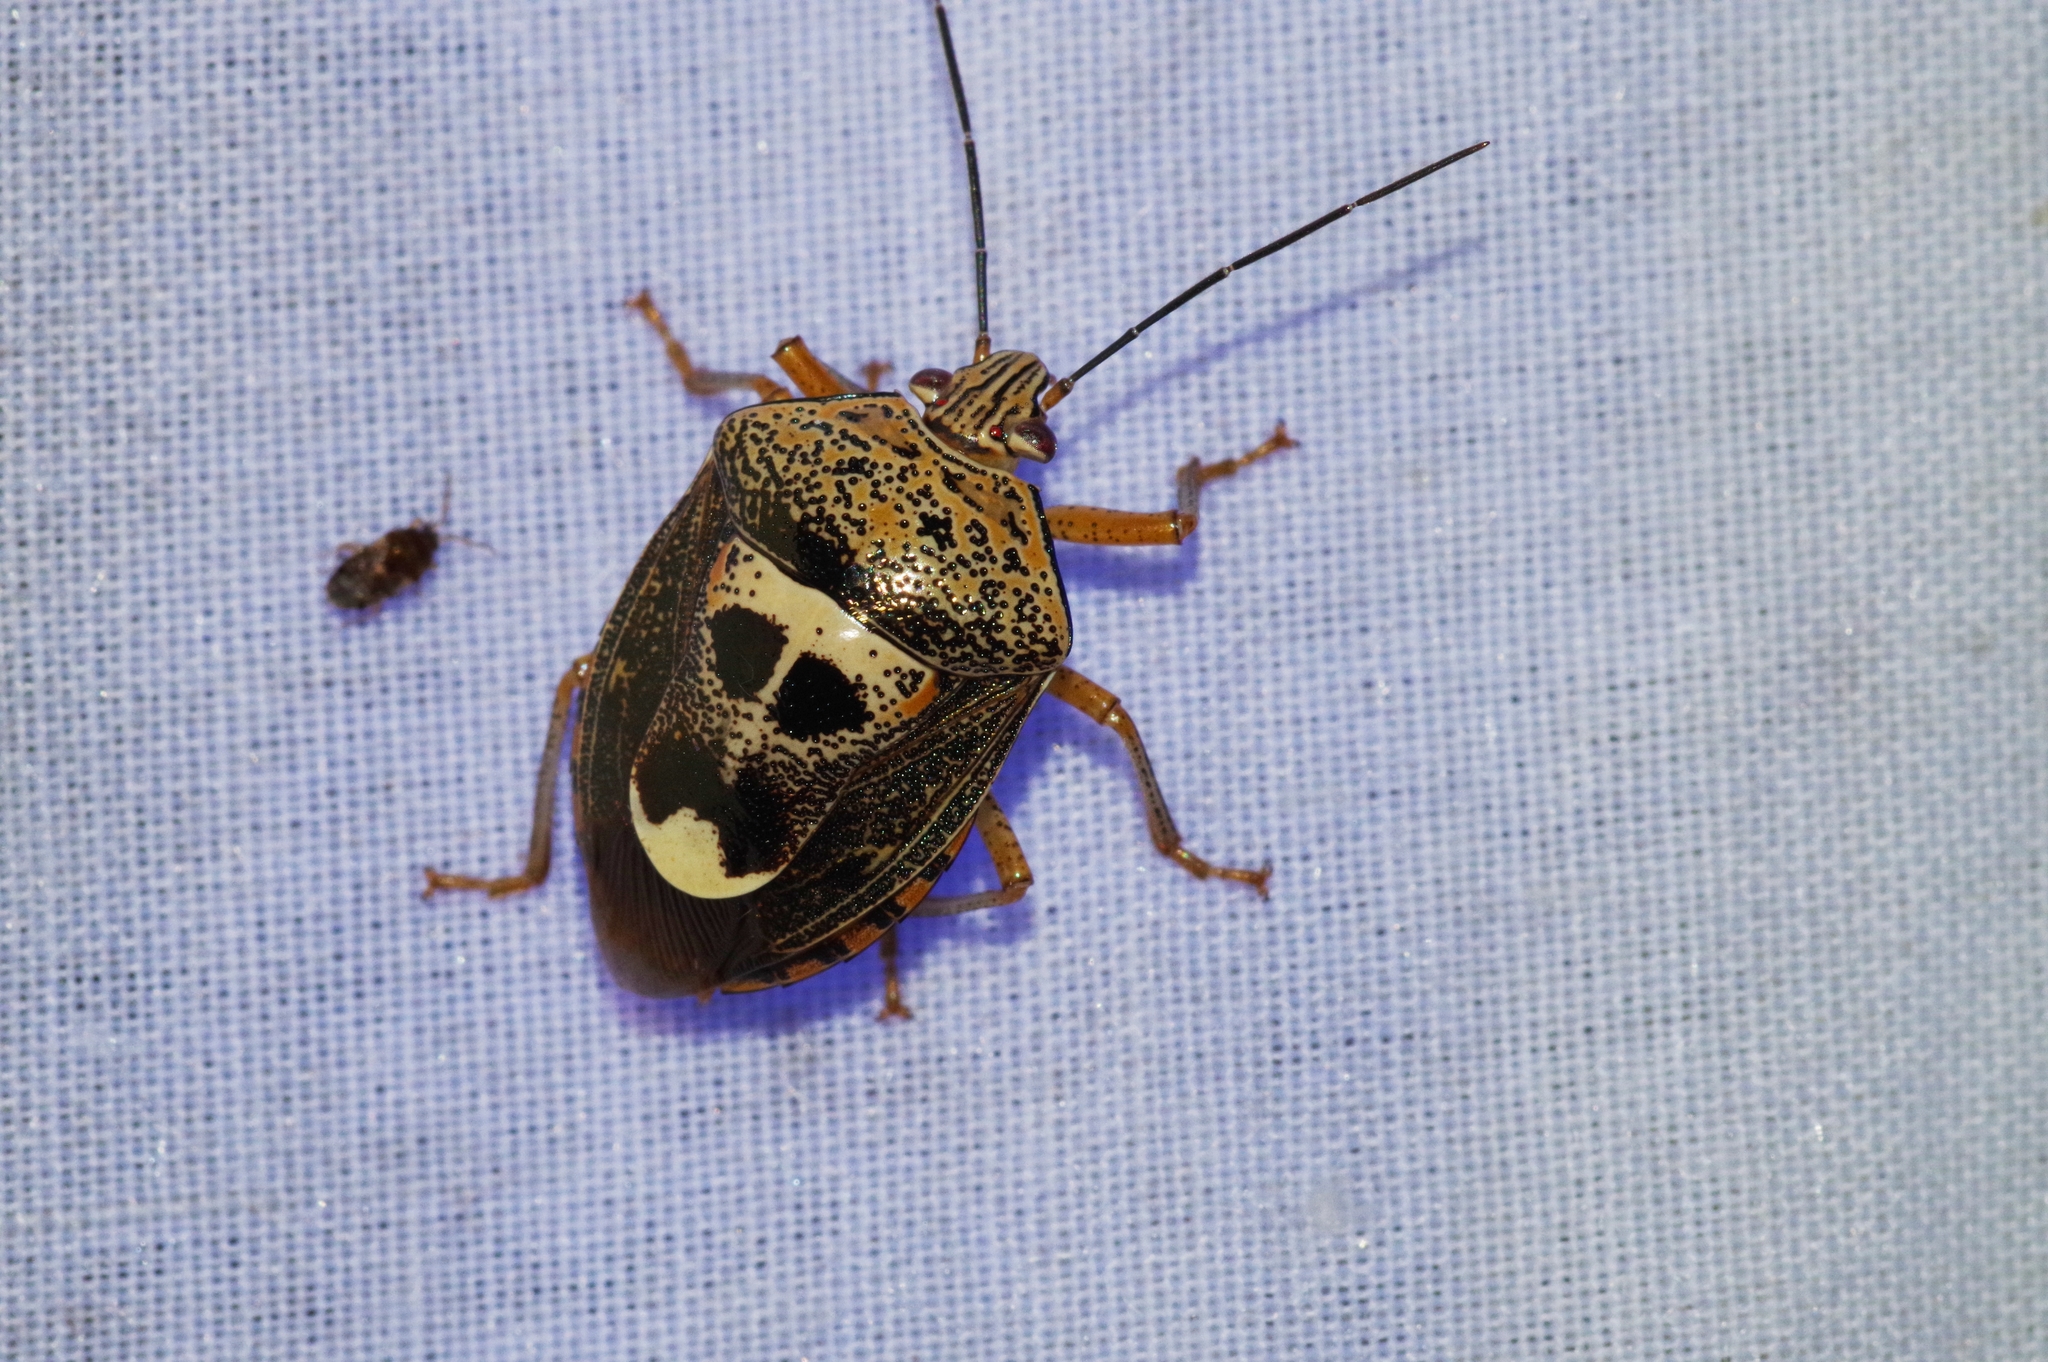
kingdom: Animalia
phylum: Arthropoda
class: Insecta
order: Hemiptera
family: Pentatomidae
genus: Axiagastus
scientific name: Axiagastus rosmarus
